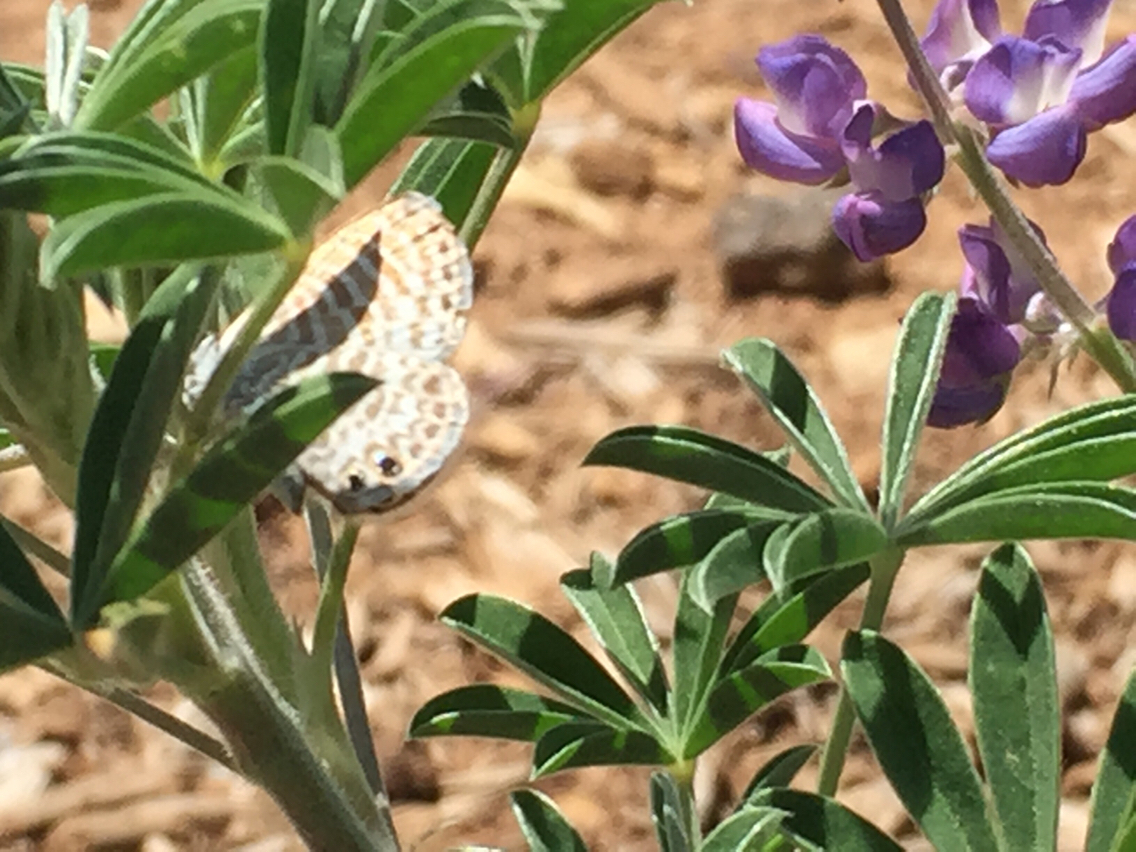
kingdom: Animalia
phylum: Arthropoda
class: Insecta
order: Lepidoptera
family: Lycaenidae
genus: Leptotes
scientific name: Leptotes marina
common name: Marine blue
